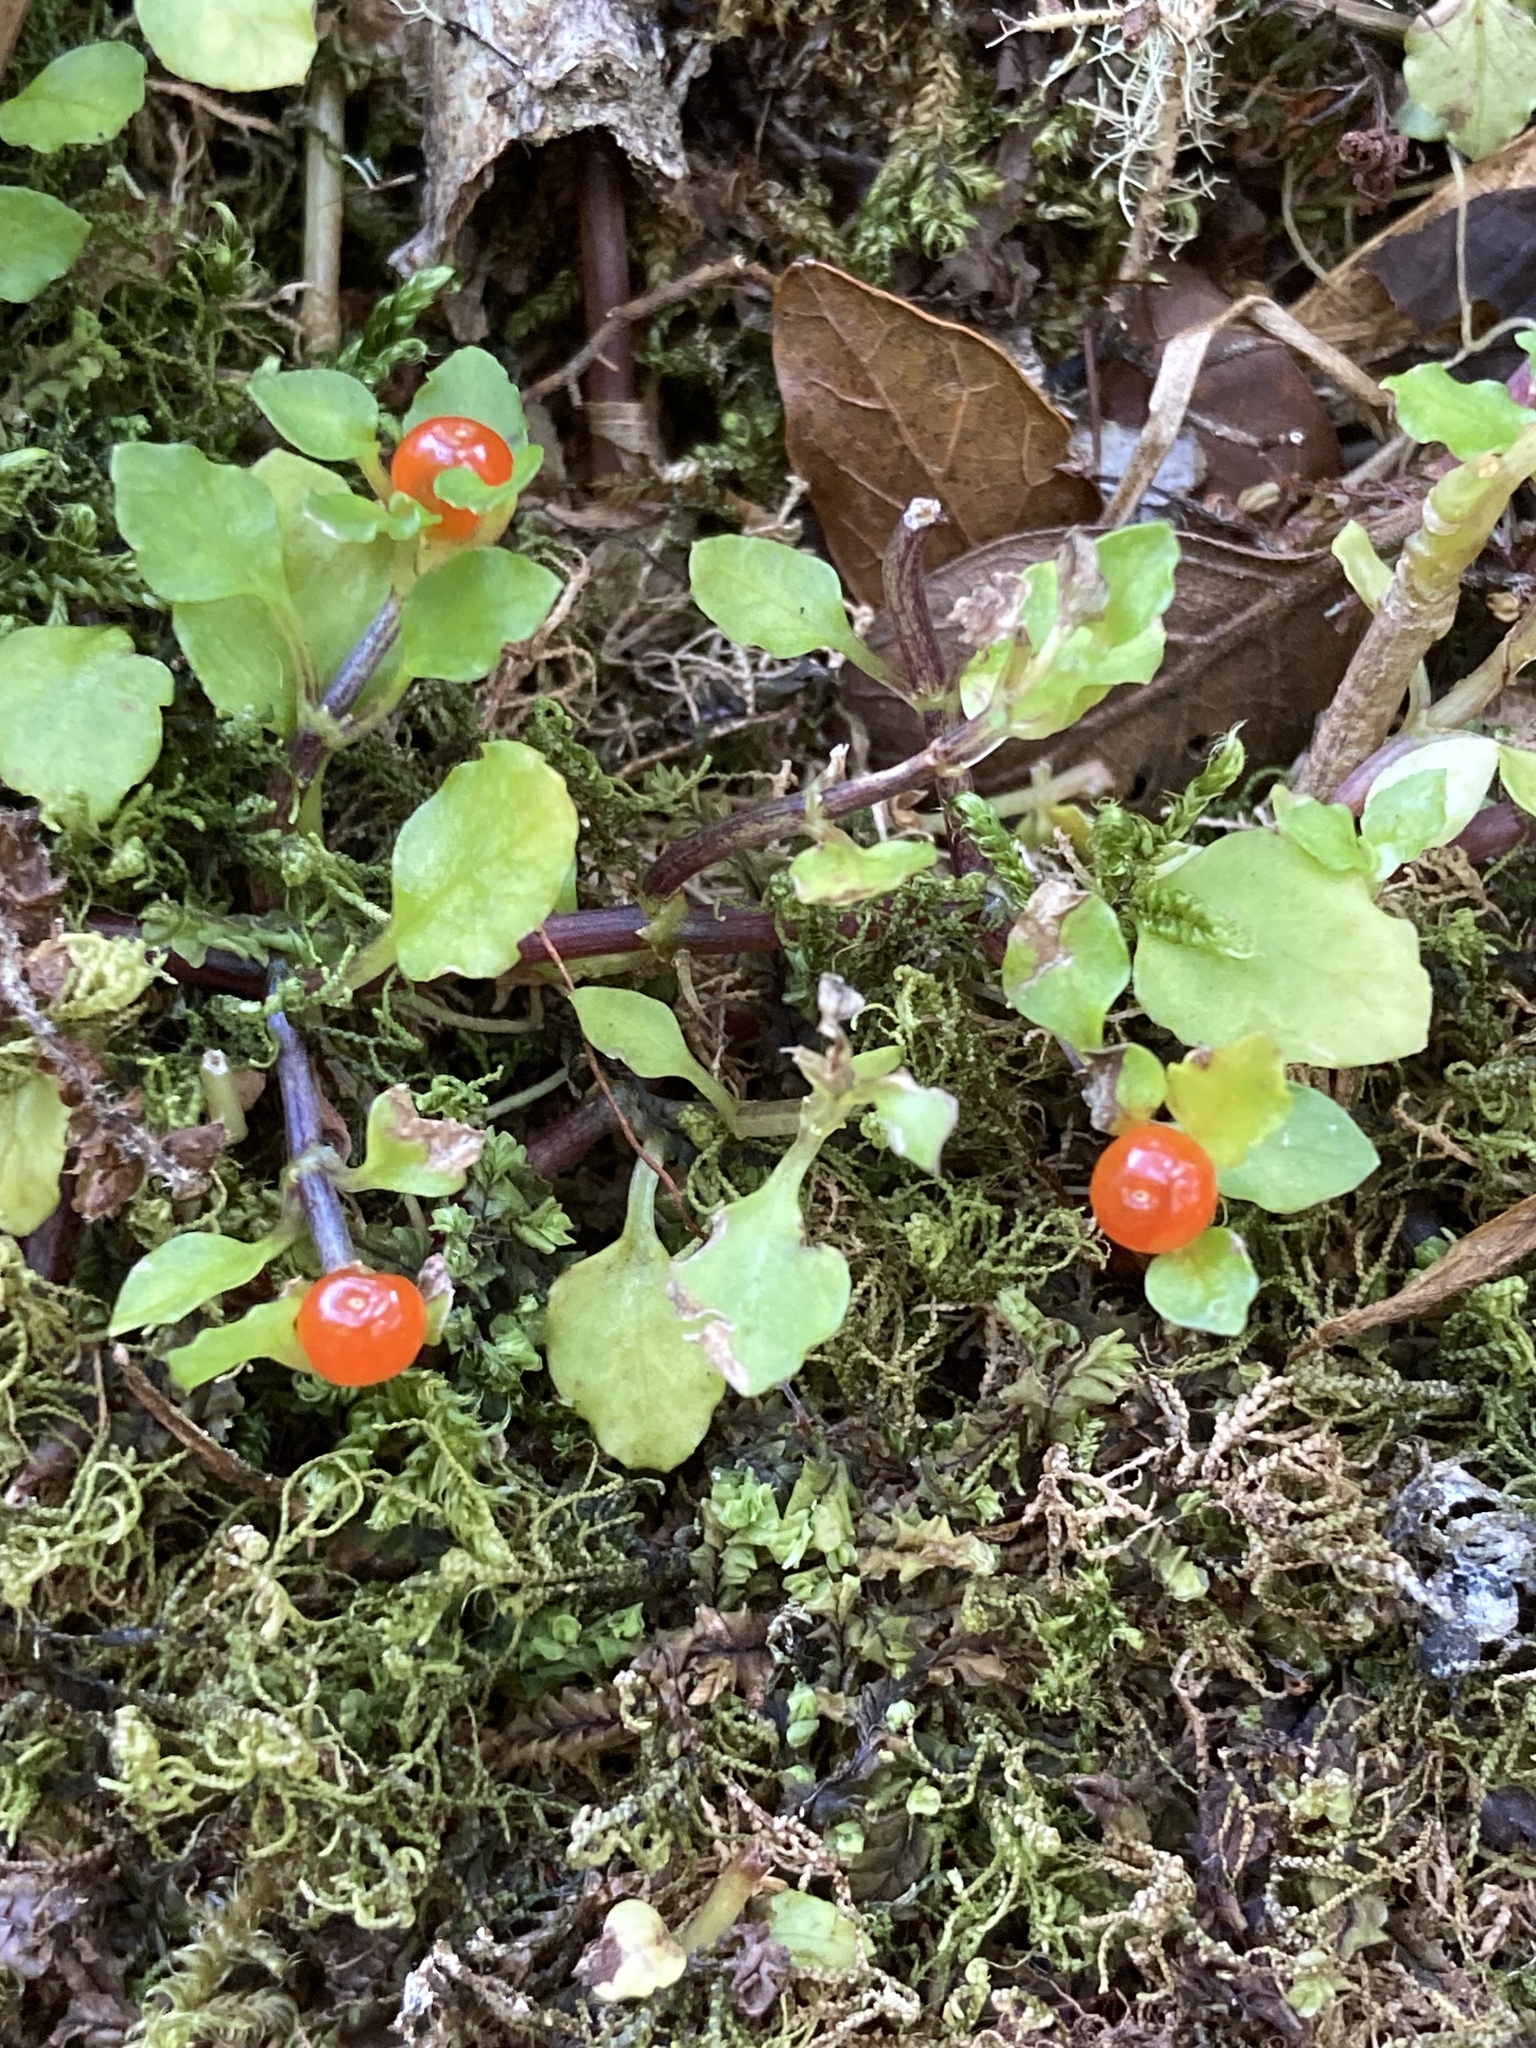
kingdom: Plantae
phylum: Tracheophyta
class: Magnoliopsida
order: Gentianales
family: Rubiaceae
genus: Nertera
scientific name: Nertera granadensis
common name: Beadplant
